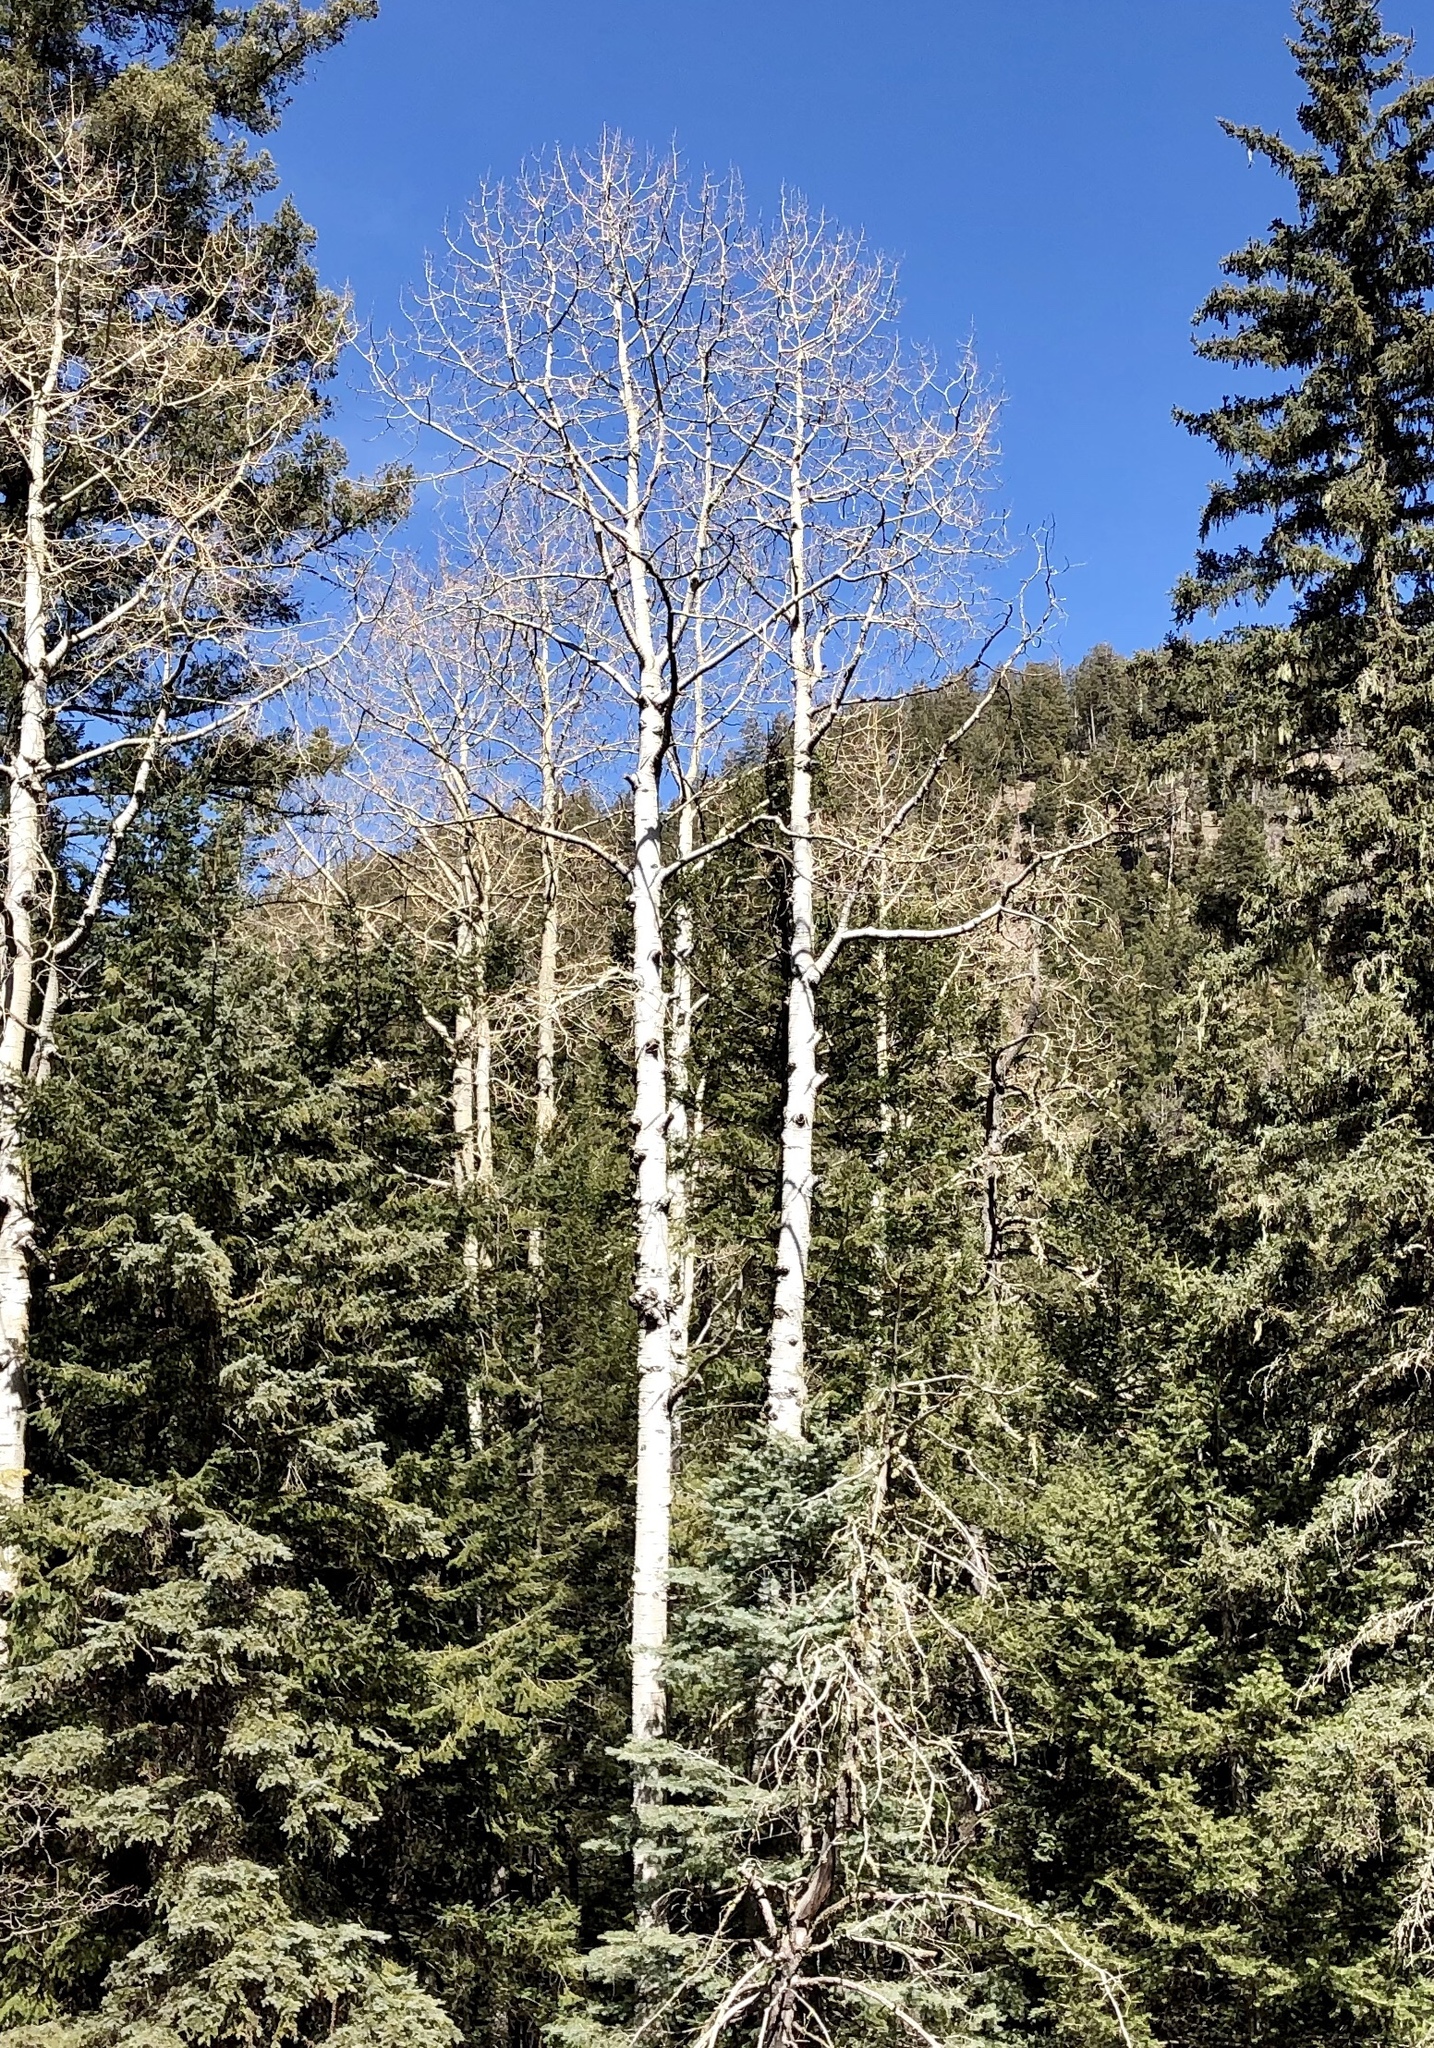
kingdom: Plantae
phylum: Tracheophyta
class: Magnoliopsida
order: Malpighiales
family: Salicaceae
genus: Populus
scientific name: Populus tremuloides
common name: Quaking aspen
